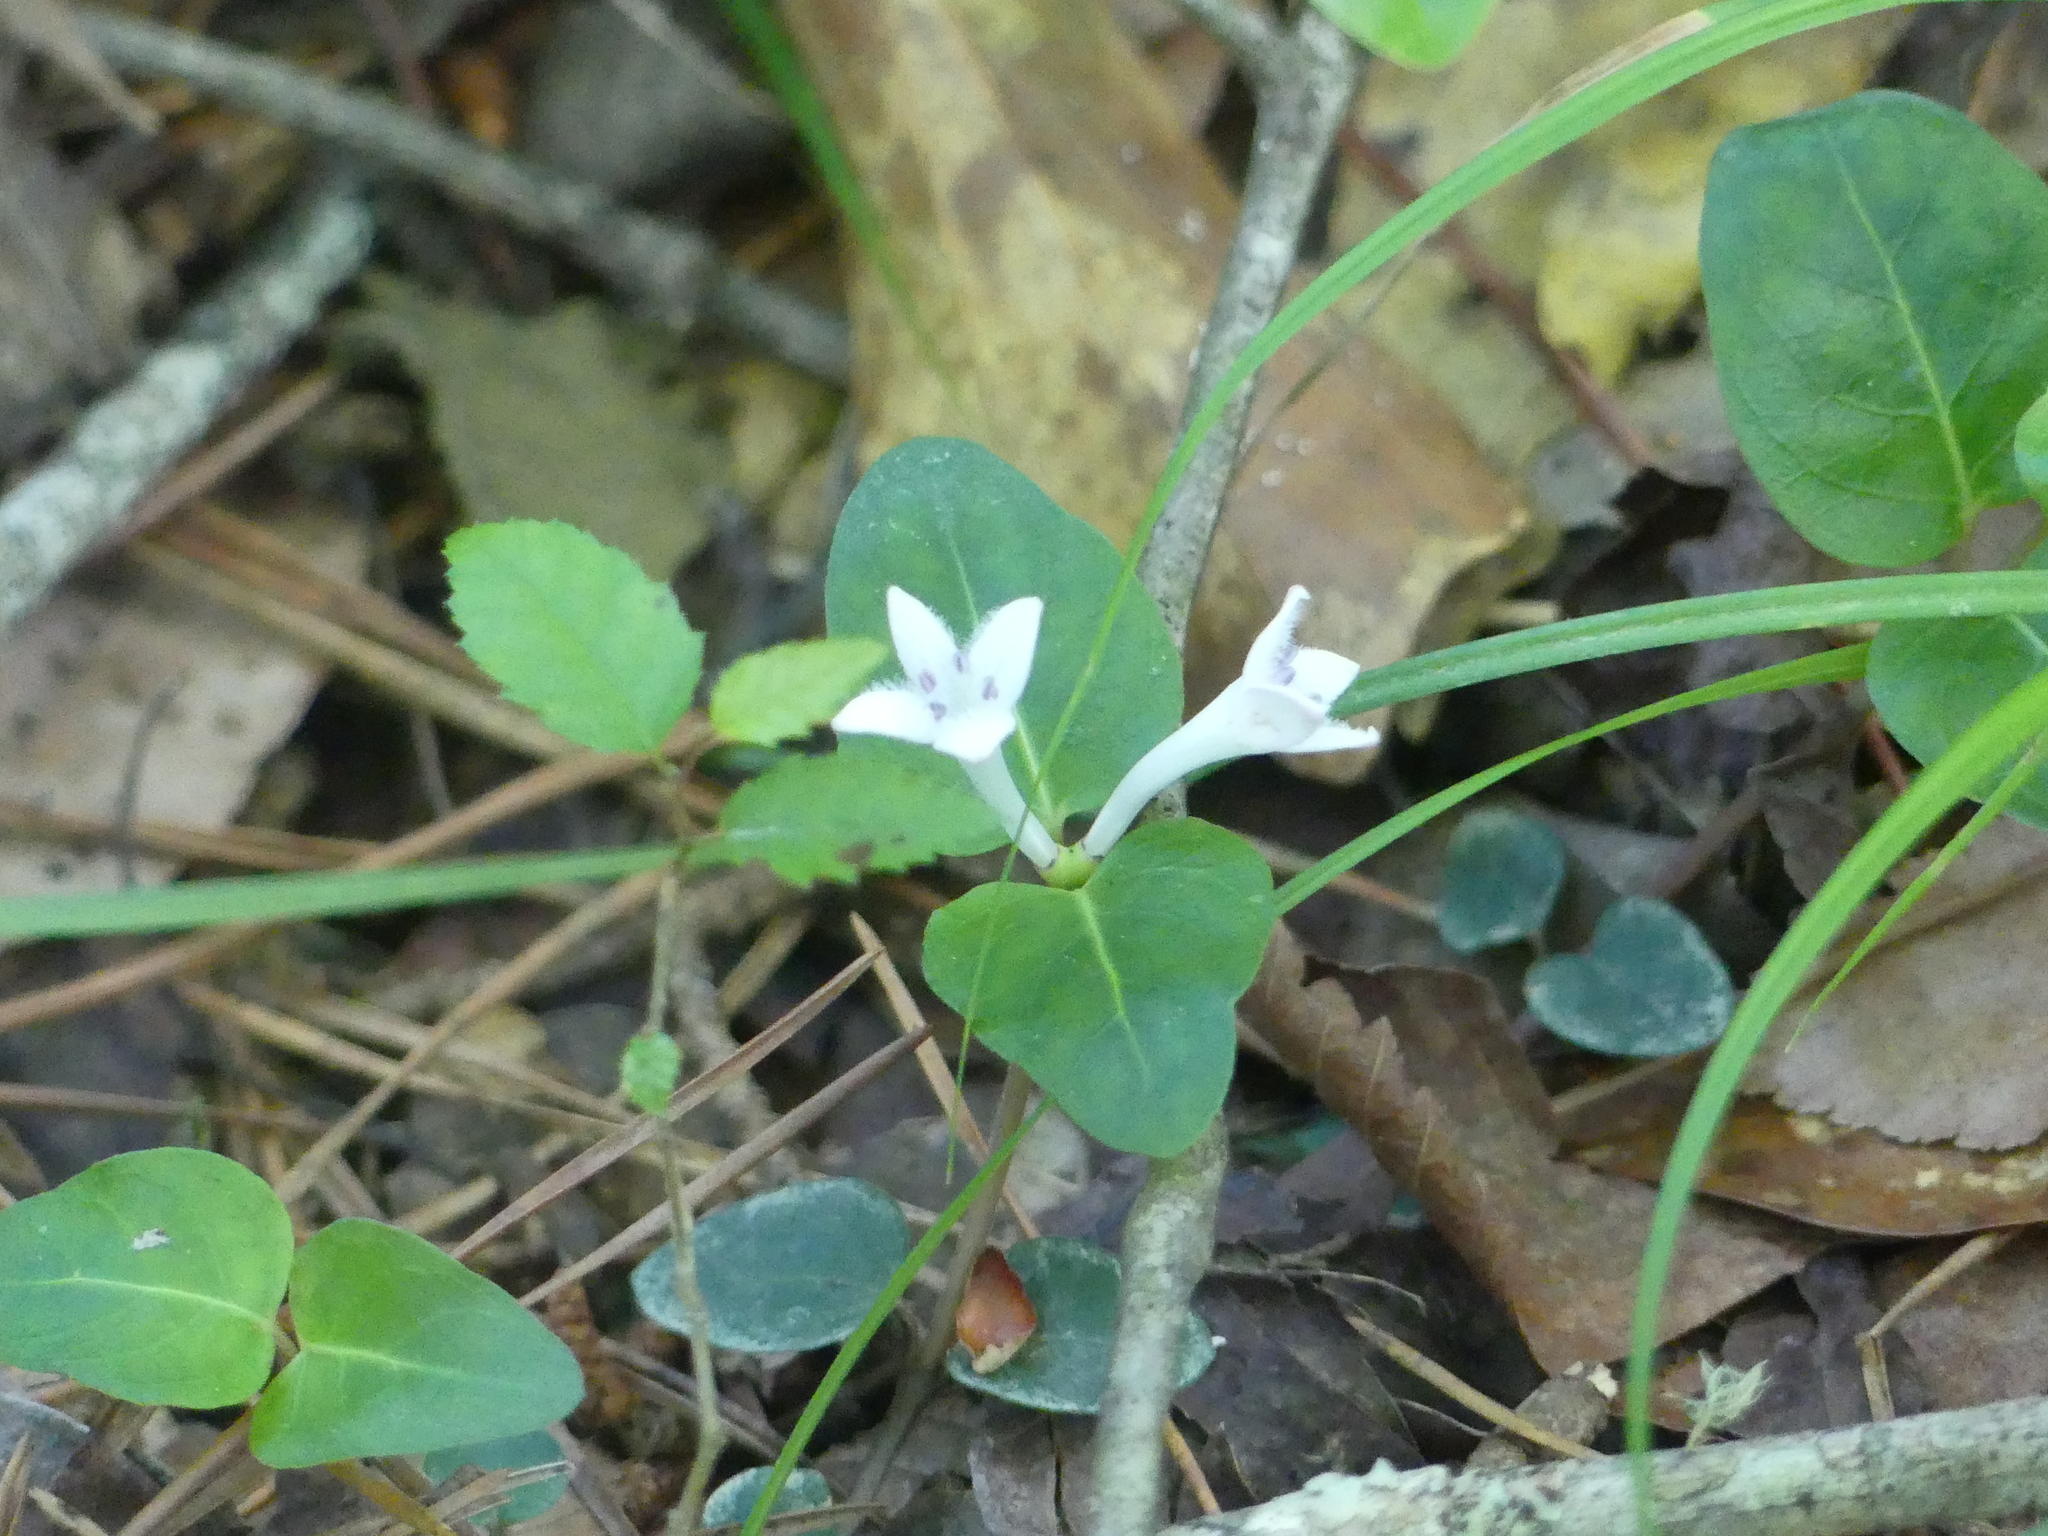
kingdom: Plantae
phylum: Tracheophyta
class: Magnoliopsida
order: Gentianales
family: Rubiaceae
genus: Mitchella
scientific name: Mitchella repens
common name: Partridge-berry
